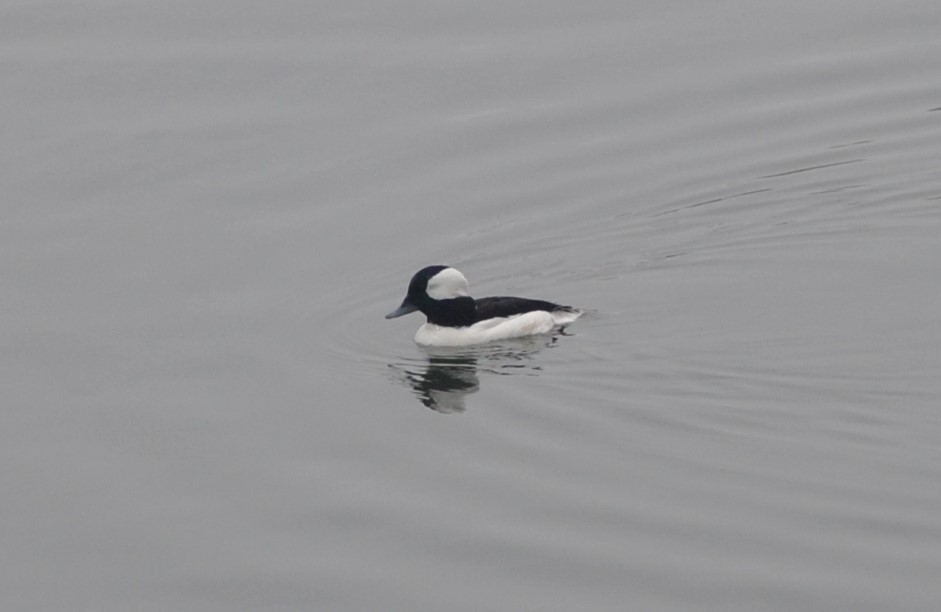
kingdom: Animalia
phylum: Chordata
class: Aves
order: Anseriformes
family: Anatidae
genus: Bucephala
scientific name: Bucephala albeola
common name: Bufflehead
